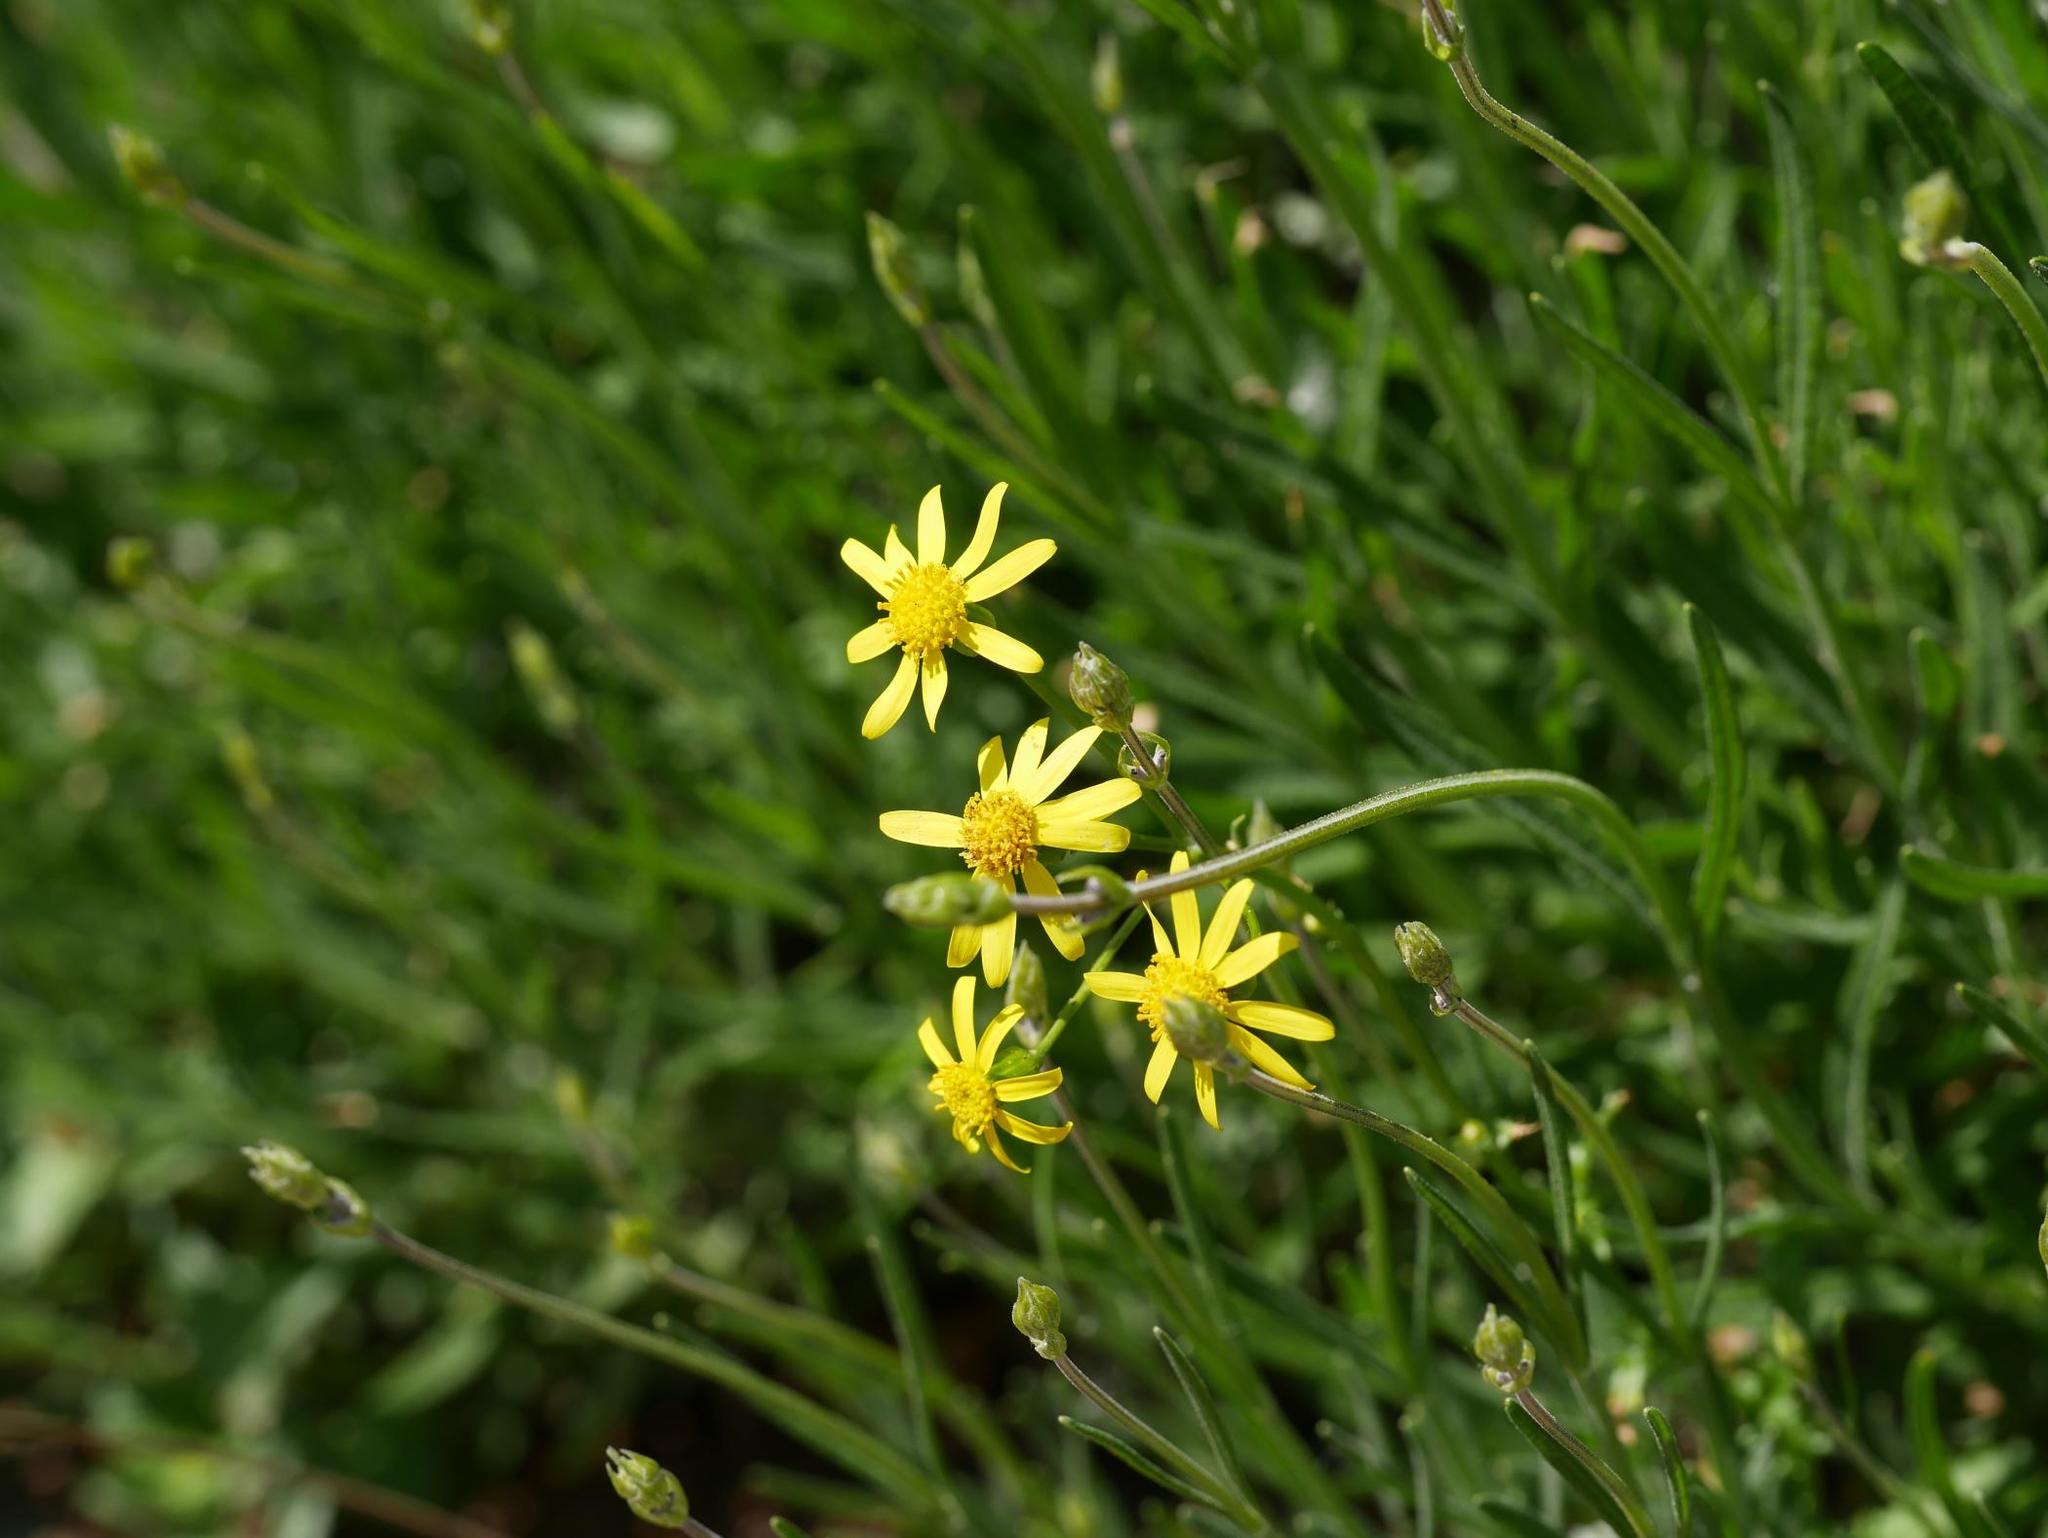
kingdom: Plantae
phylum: Tracheophyta
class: Magnoliopsida
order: Asterales
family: Asteraceae
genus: Senecio
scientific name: Senecio inaequidens
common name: Narrow-leaved ragwort
